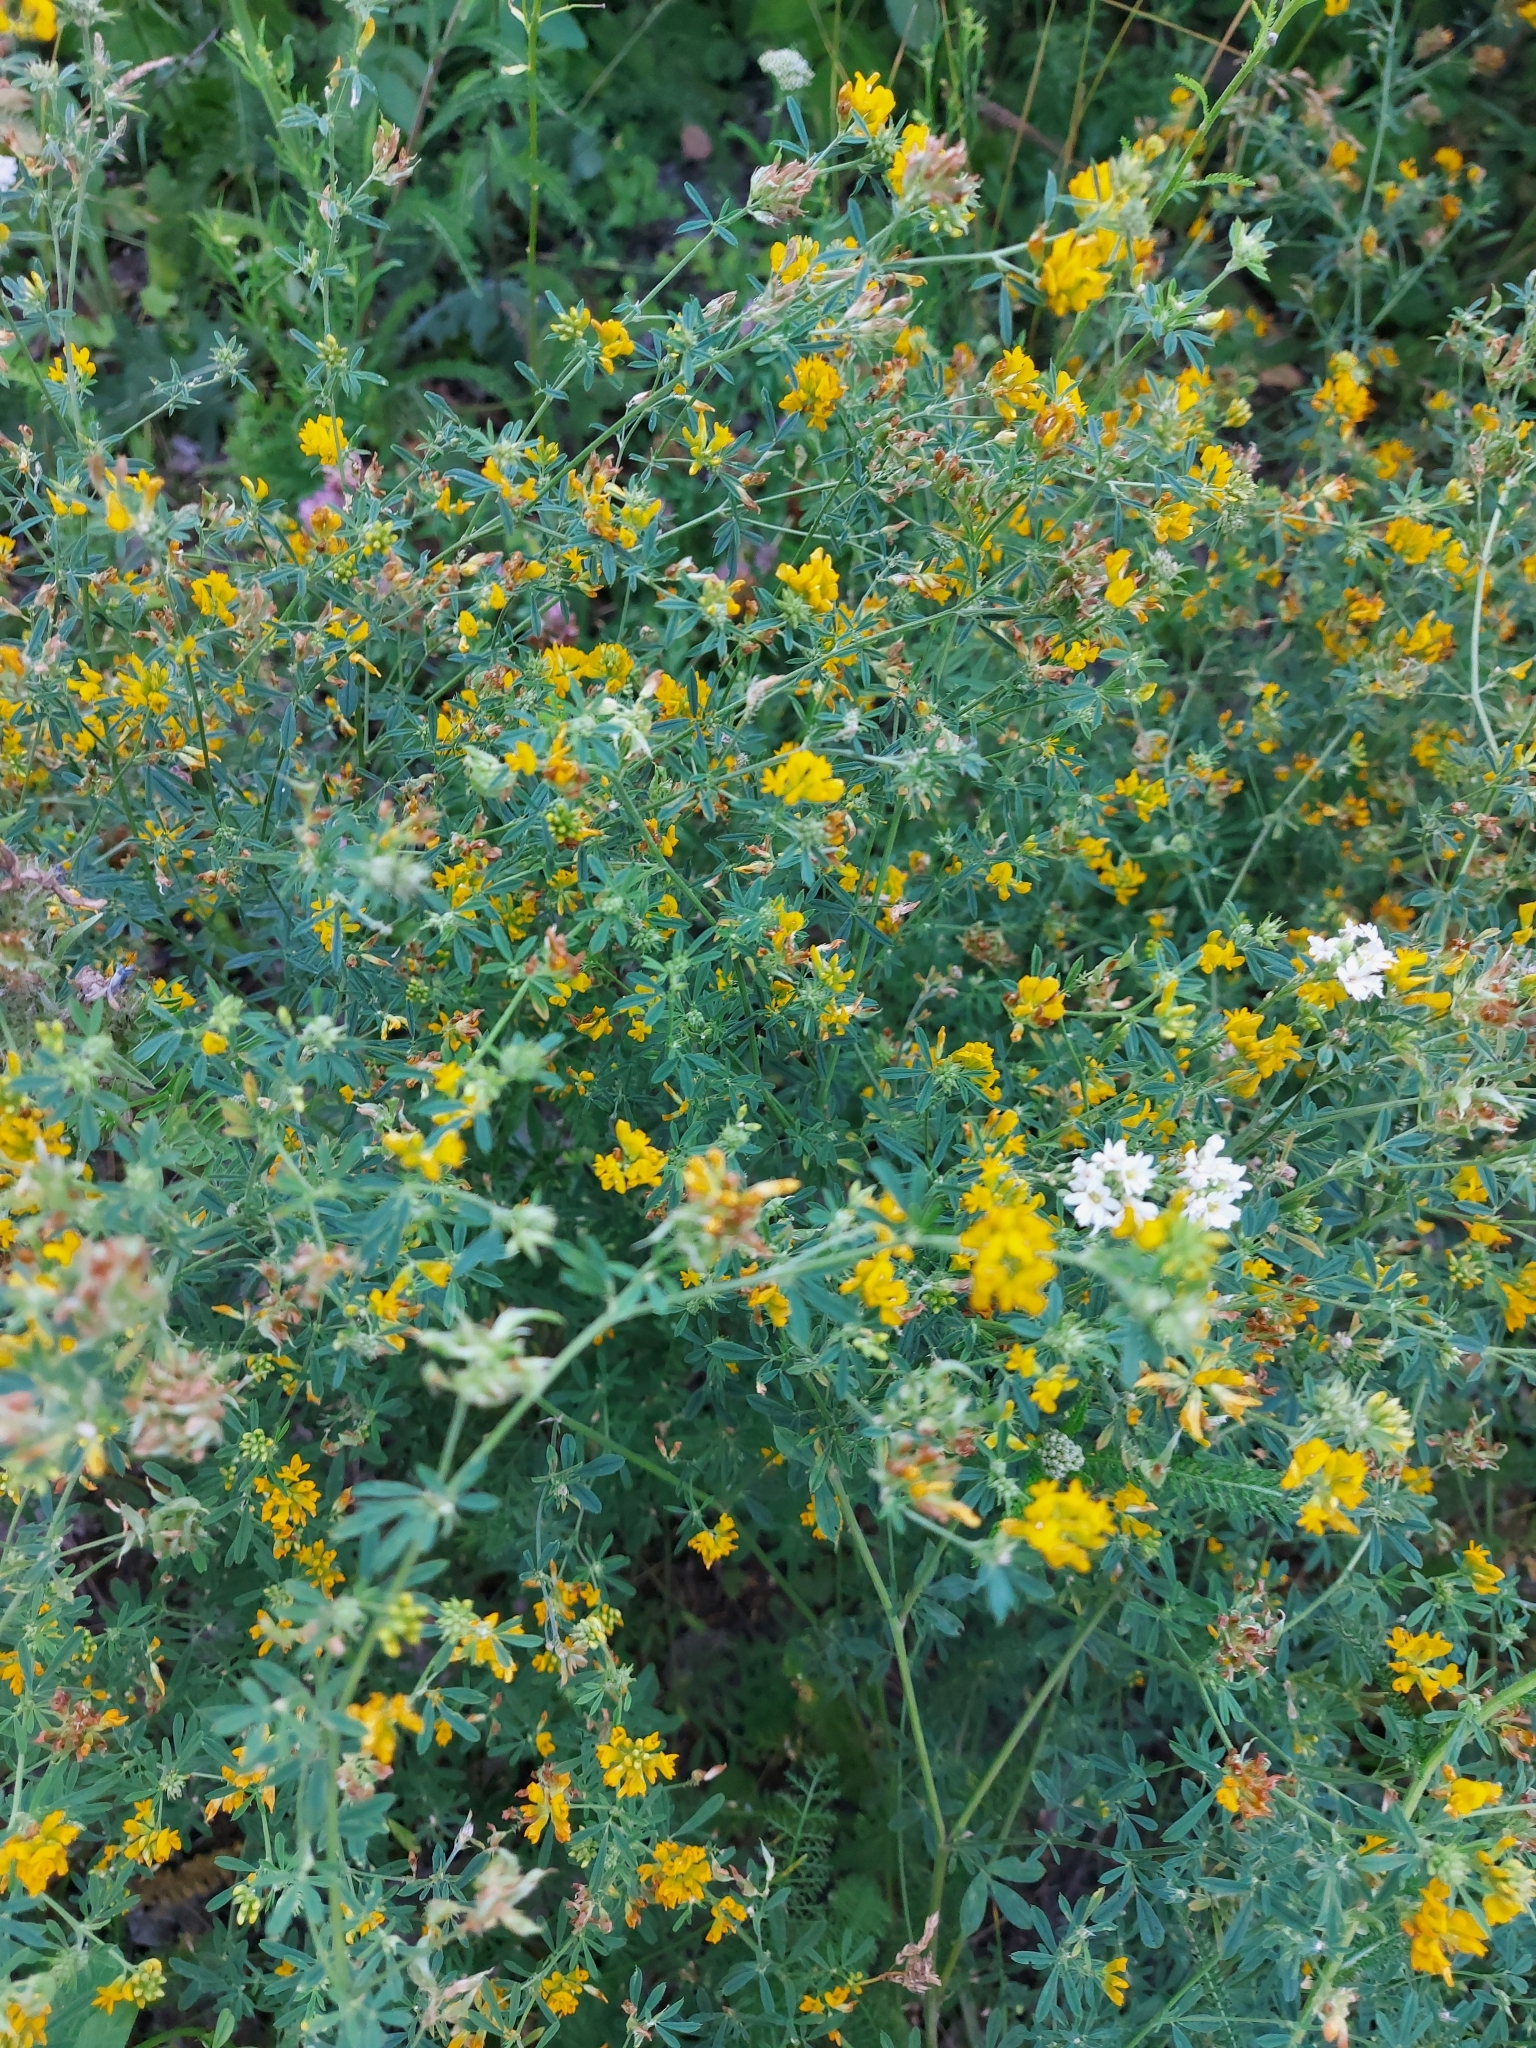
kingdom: Plantae
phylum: Tracheophyta
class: Magnoliopsida
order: Fabales
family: Fabaceae
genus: Medicago
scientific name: Medicago falcata
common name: Sickle medick
